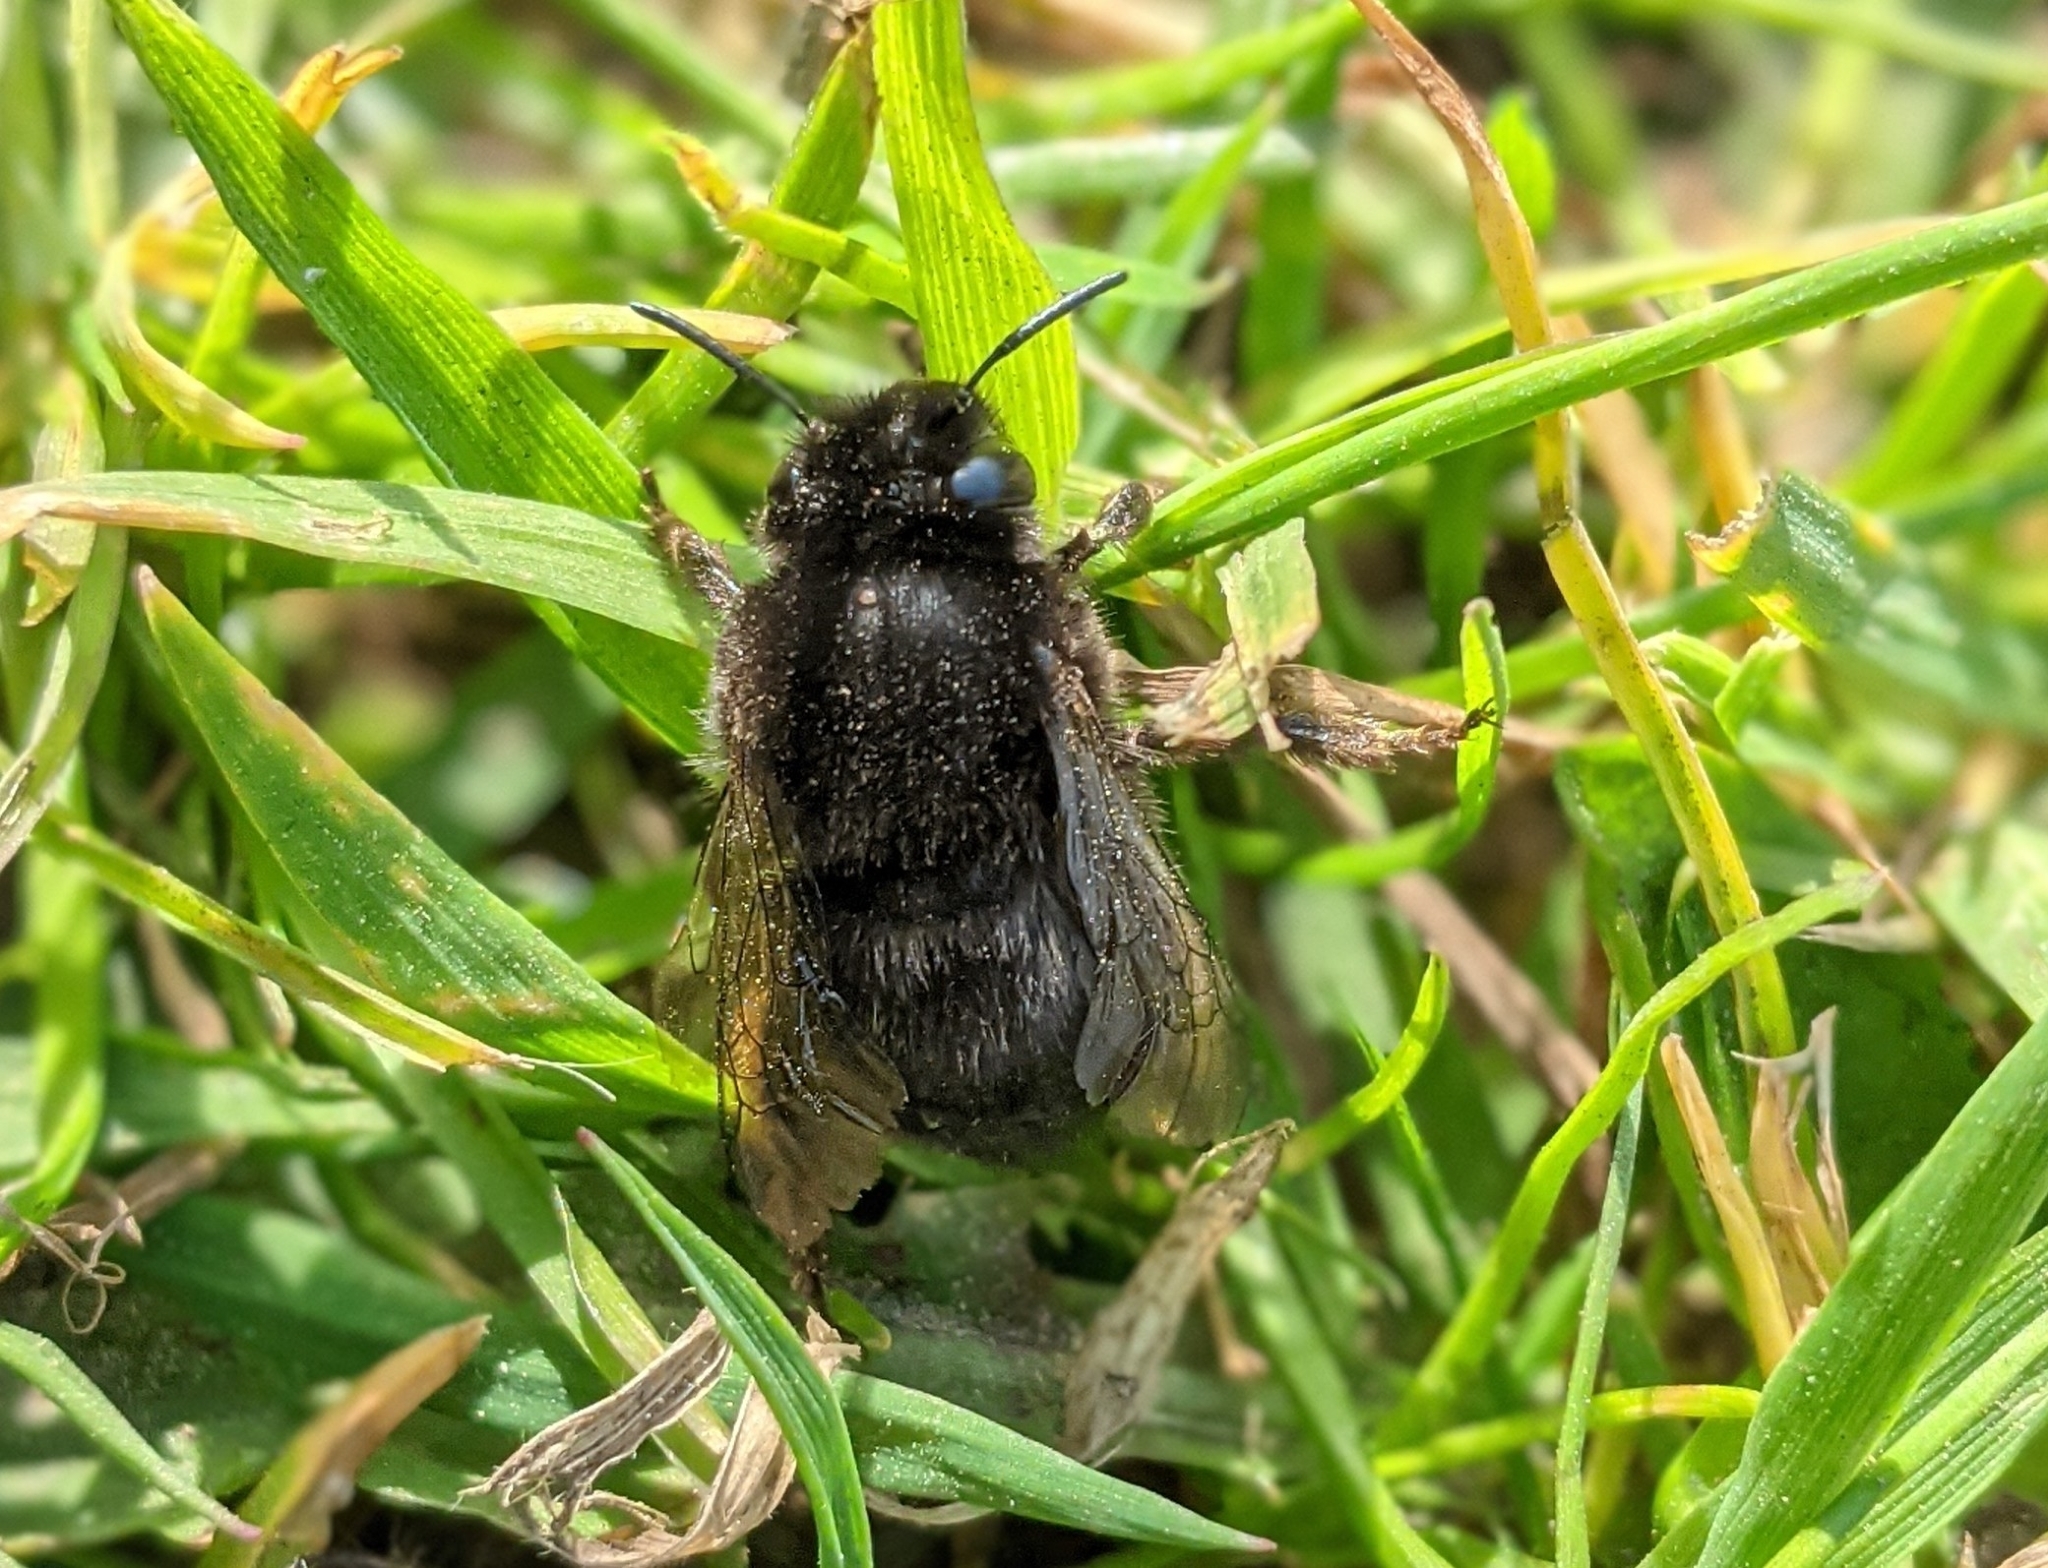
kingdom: Animalia
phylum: Arthropoda
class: Insecta
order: Hymenoptera
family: Apidae
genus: Anthophora
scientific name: Anthophora plumipes
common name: Hairy-footed flower bee
